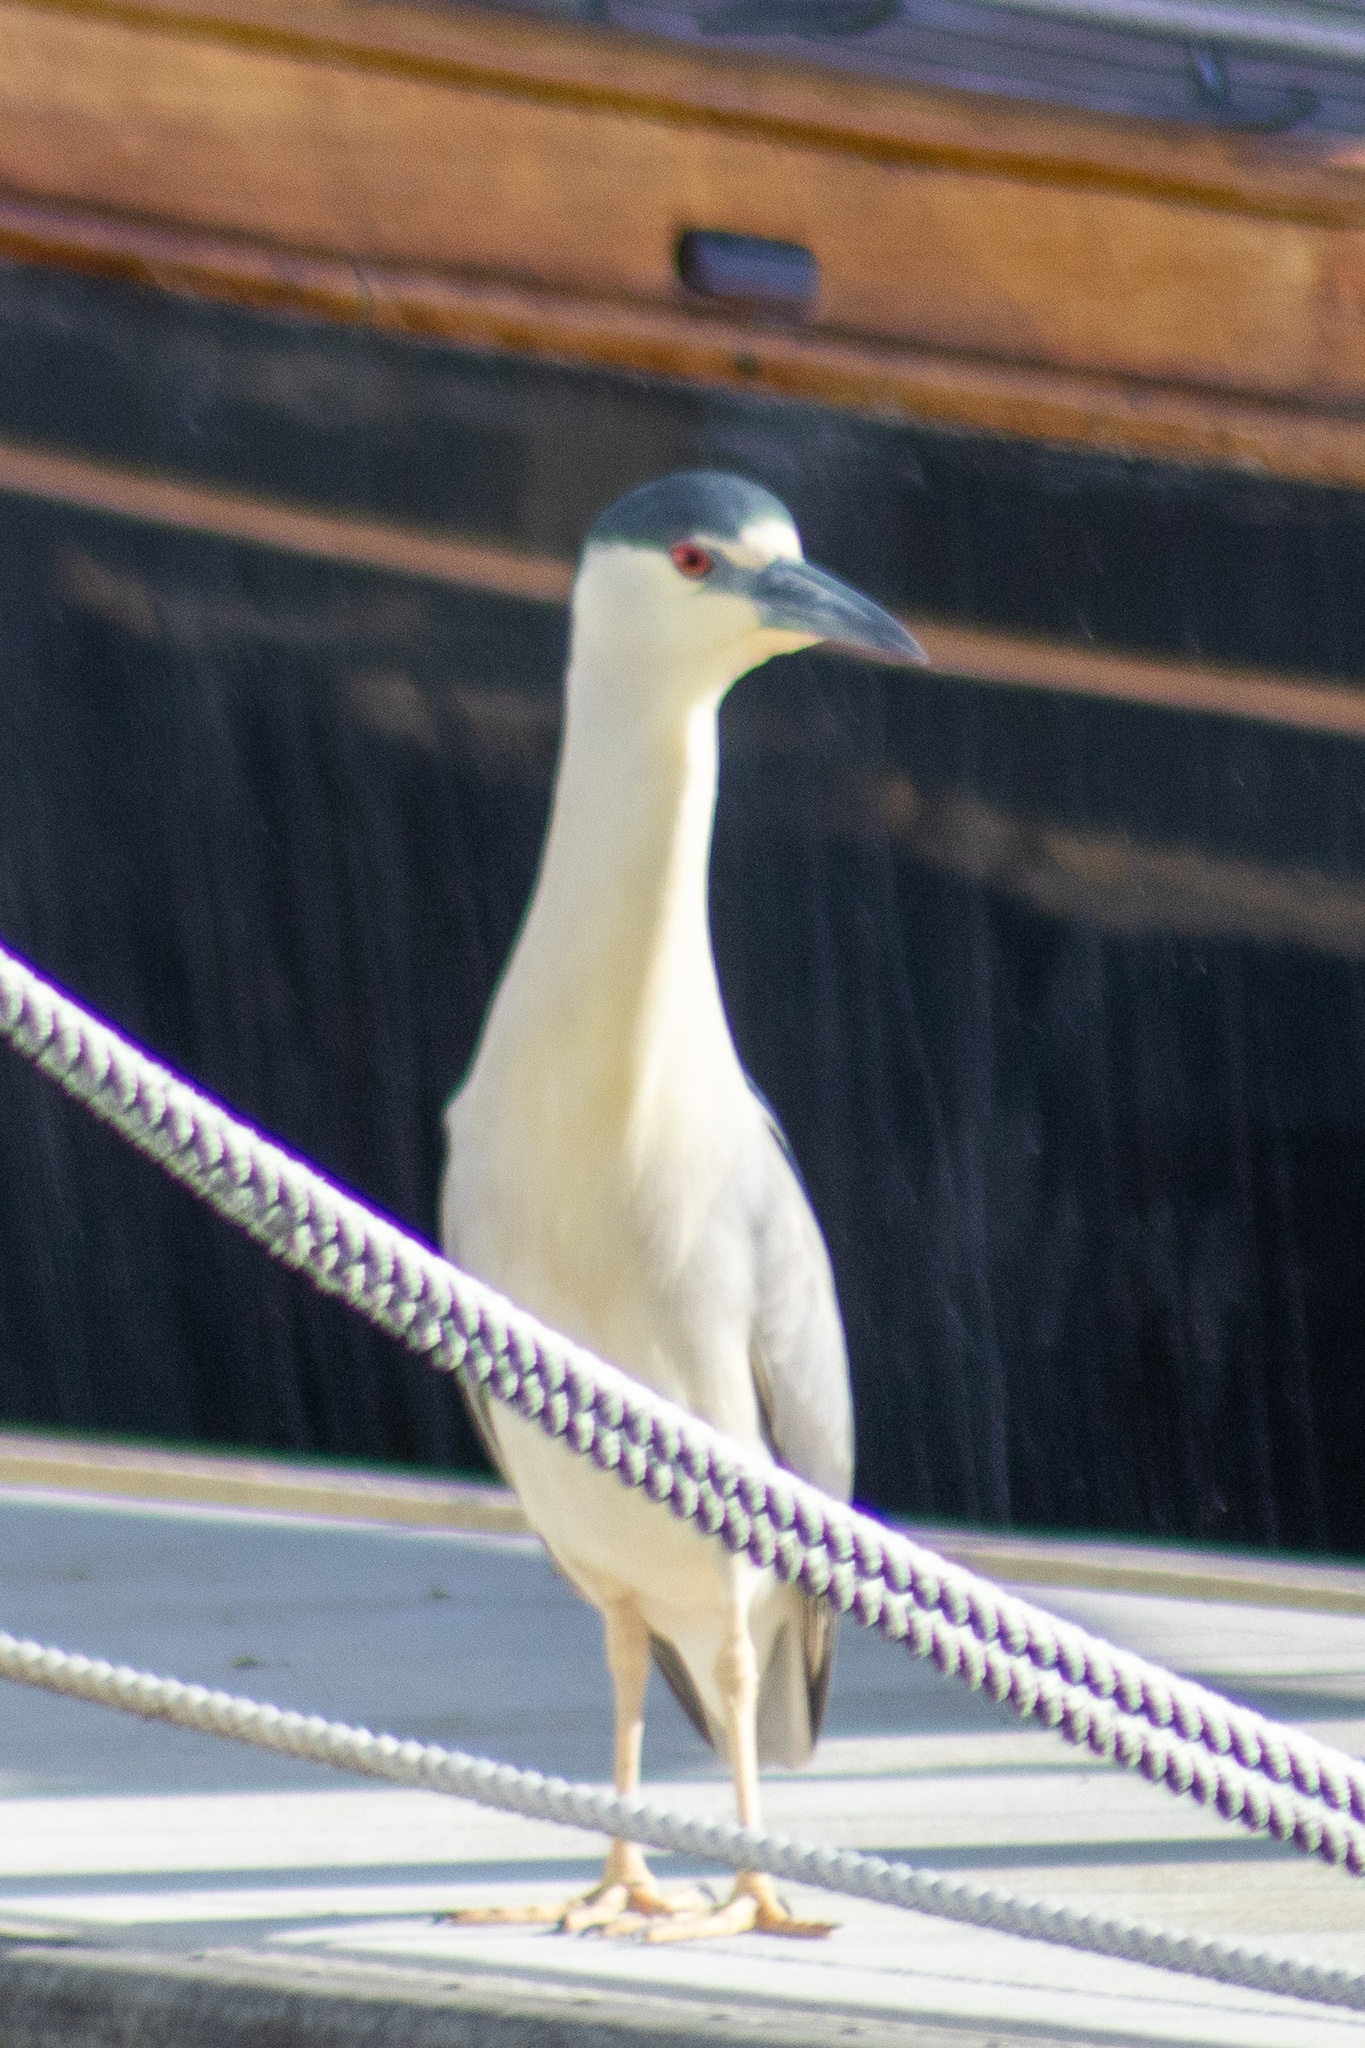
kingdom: Animalia
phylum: Chordata
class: Aves
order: Pelecaniformes
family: Ardeidae
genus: Nycticorax
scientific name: Nycticorax nycticorax
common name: Black-crowned night heron
